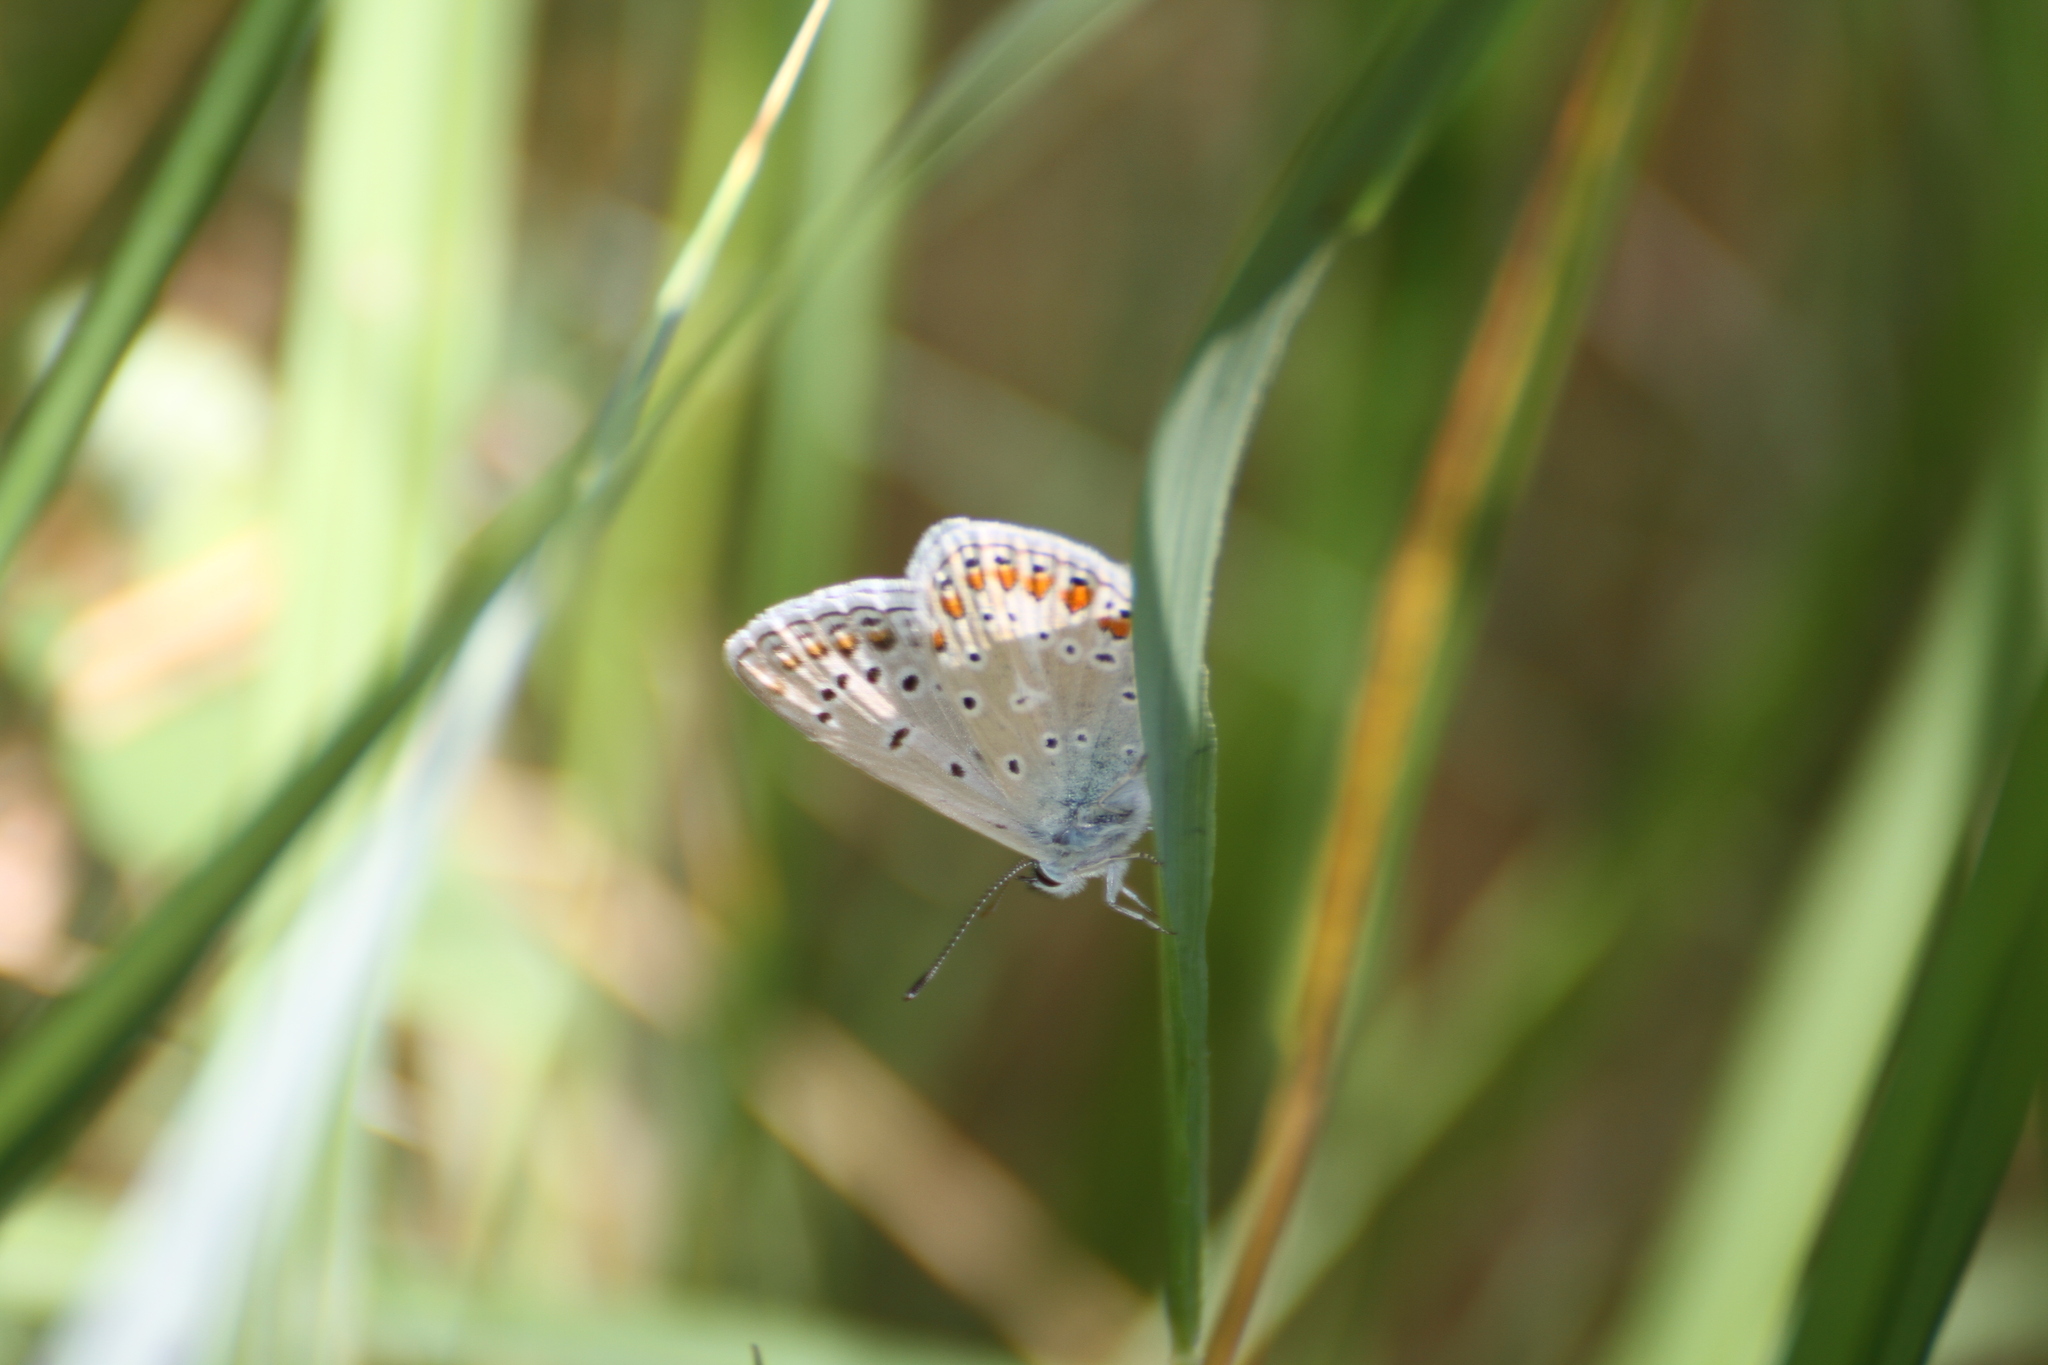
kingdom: Animalia
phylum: Arthropoda
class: Insecta
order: Lepidoptera
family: Lycaenidae
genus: Polyommatus
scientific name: Polyommatus icarus
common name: Common blue
